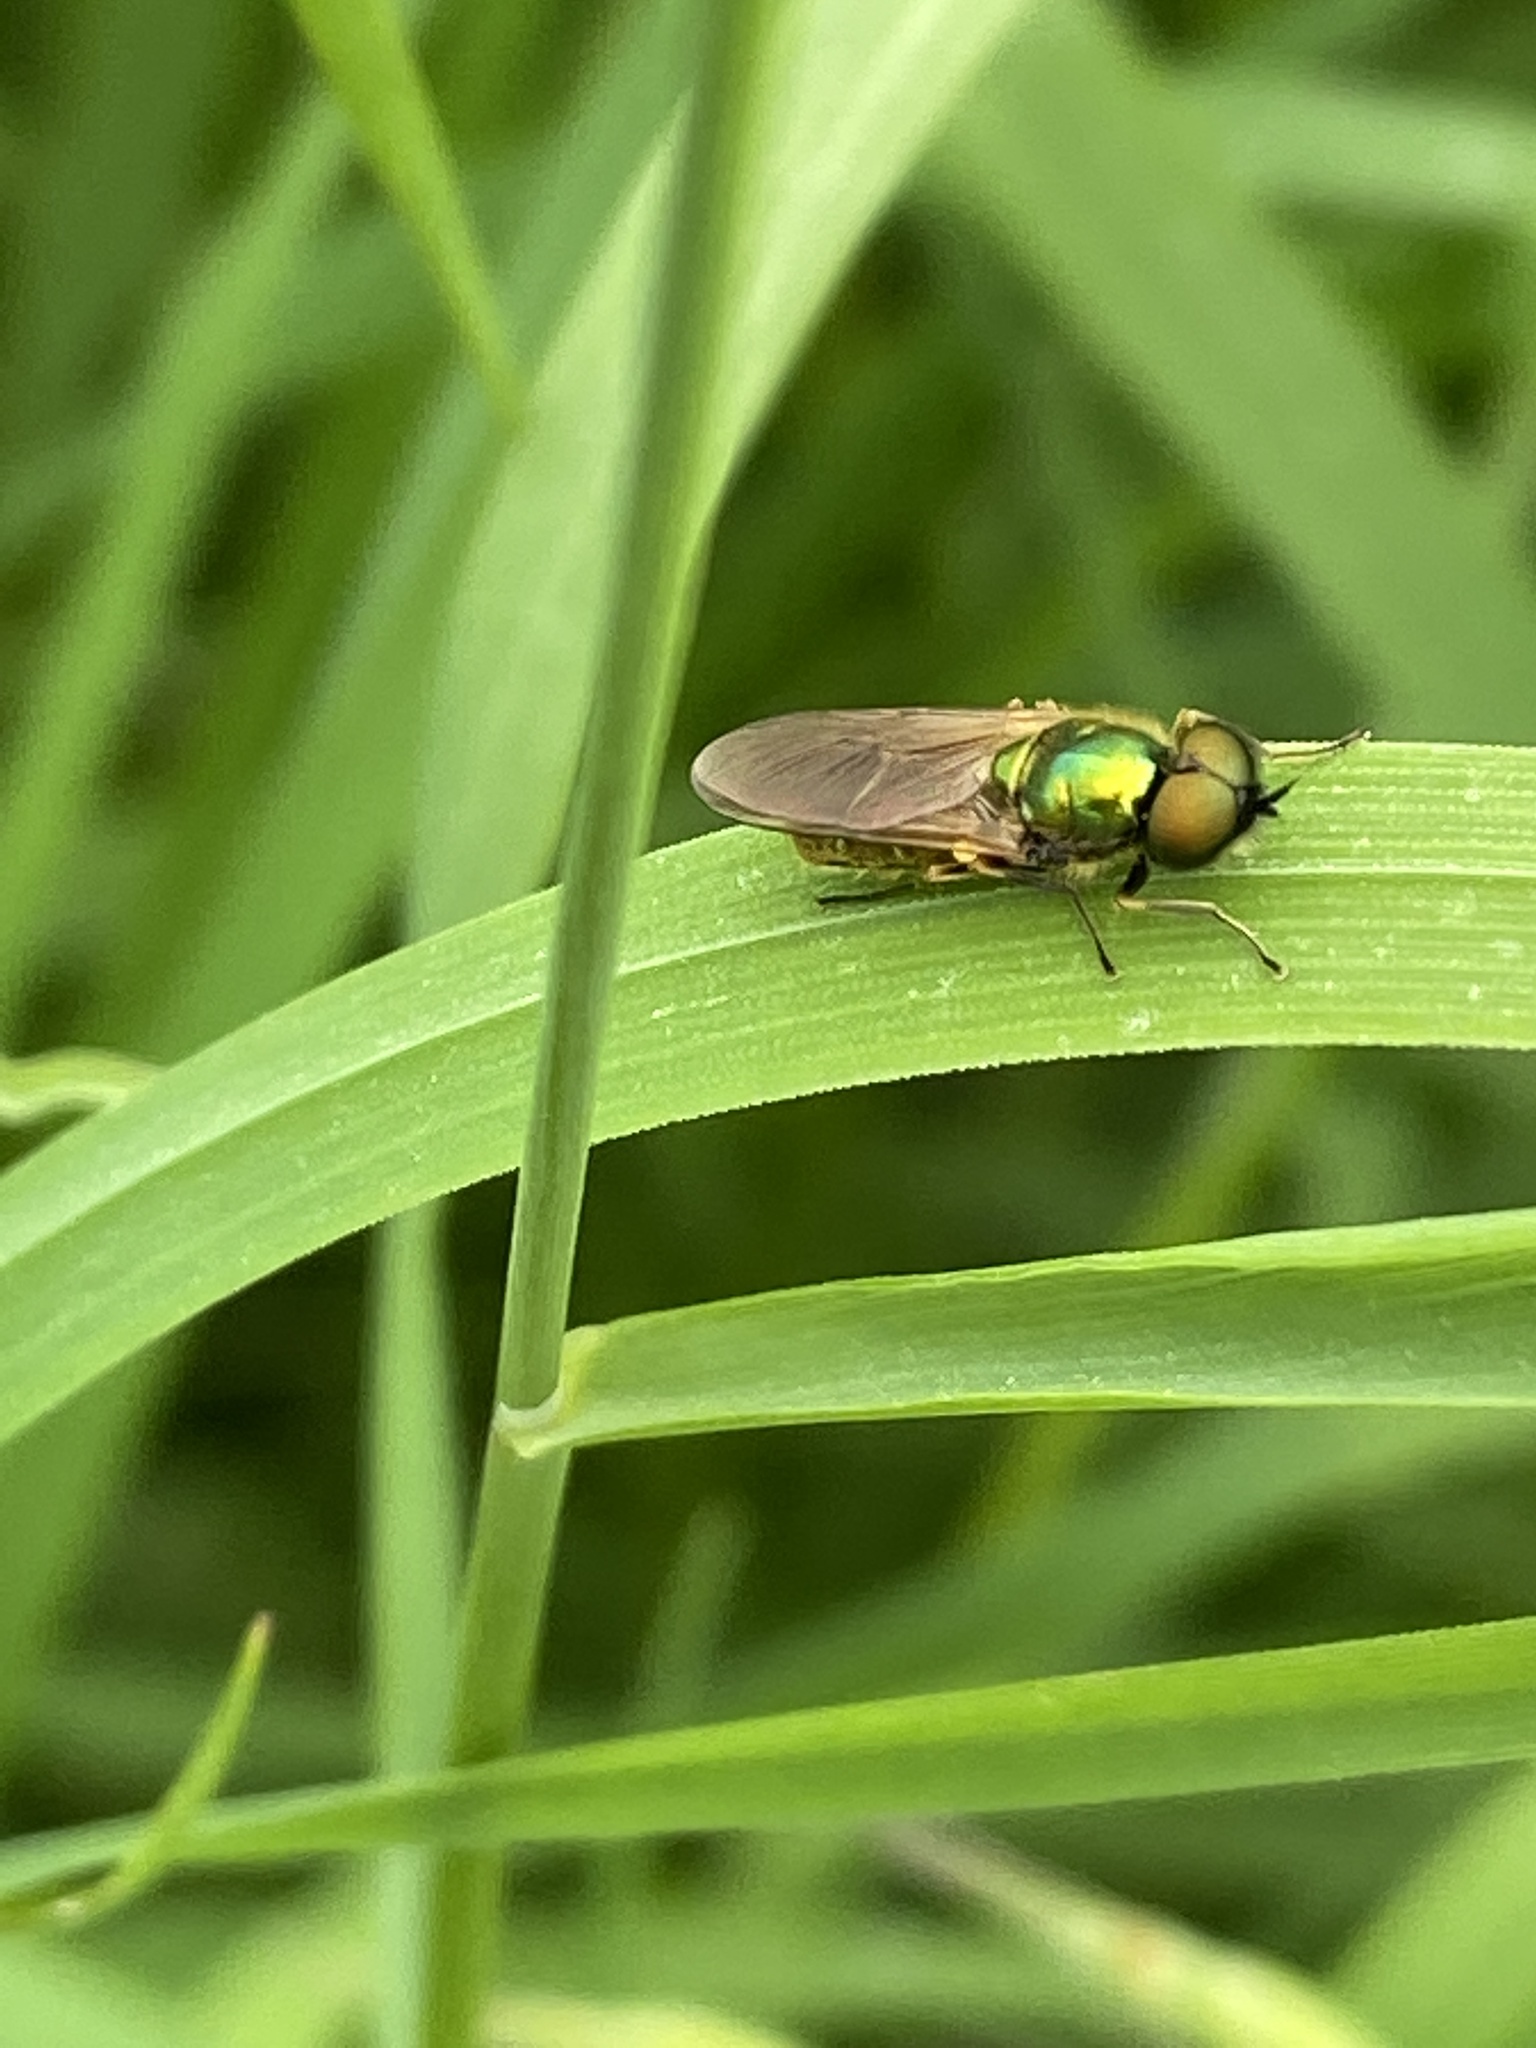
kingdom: Animalia
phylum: Arthropoda
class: Insecta
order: Diptera
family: Stratiomyidae
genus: Chloromyia
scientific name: Chloromyia formosa
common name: Soldier fly
